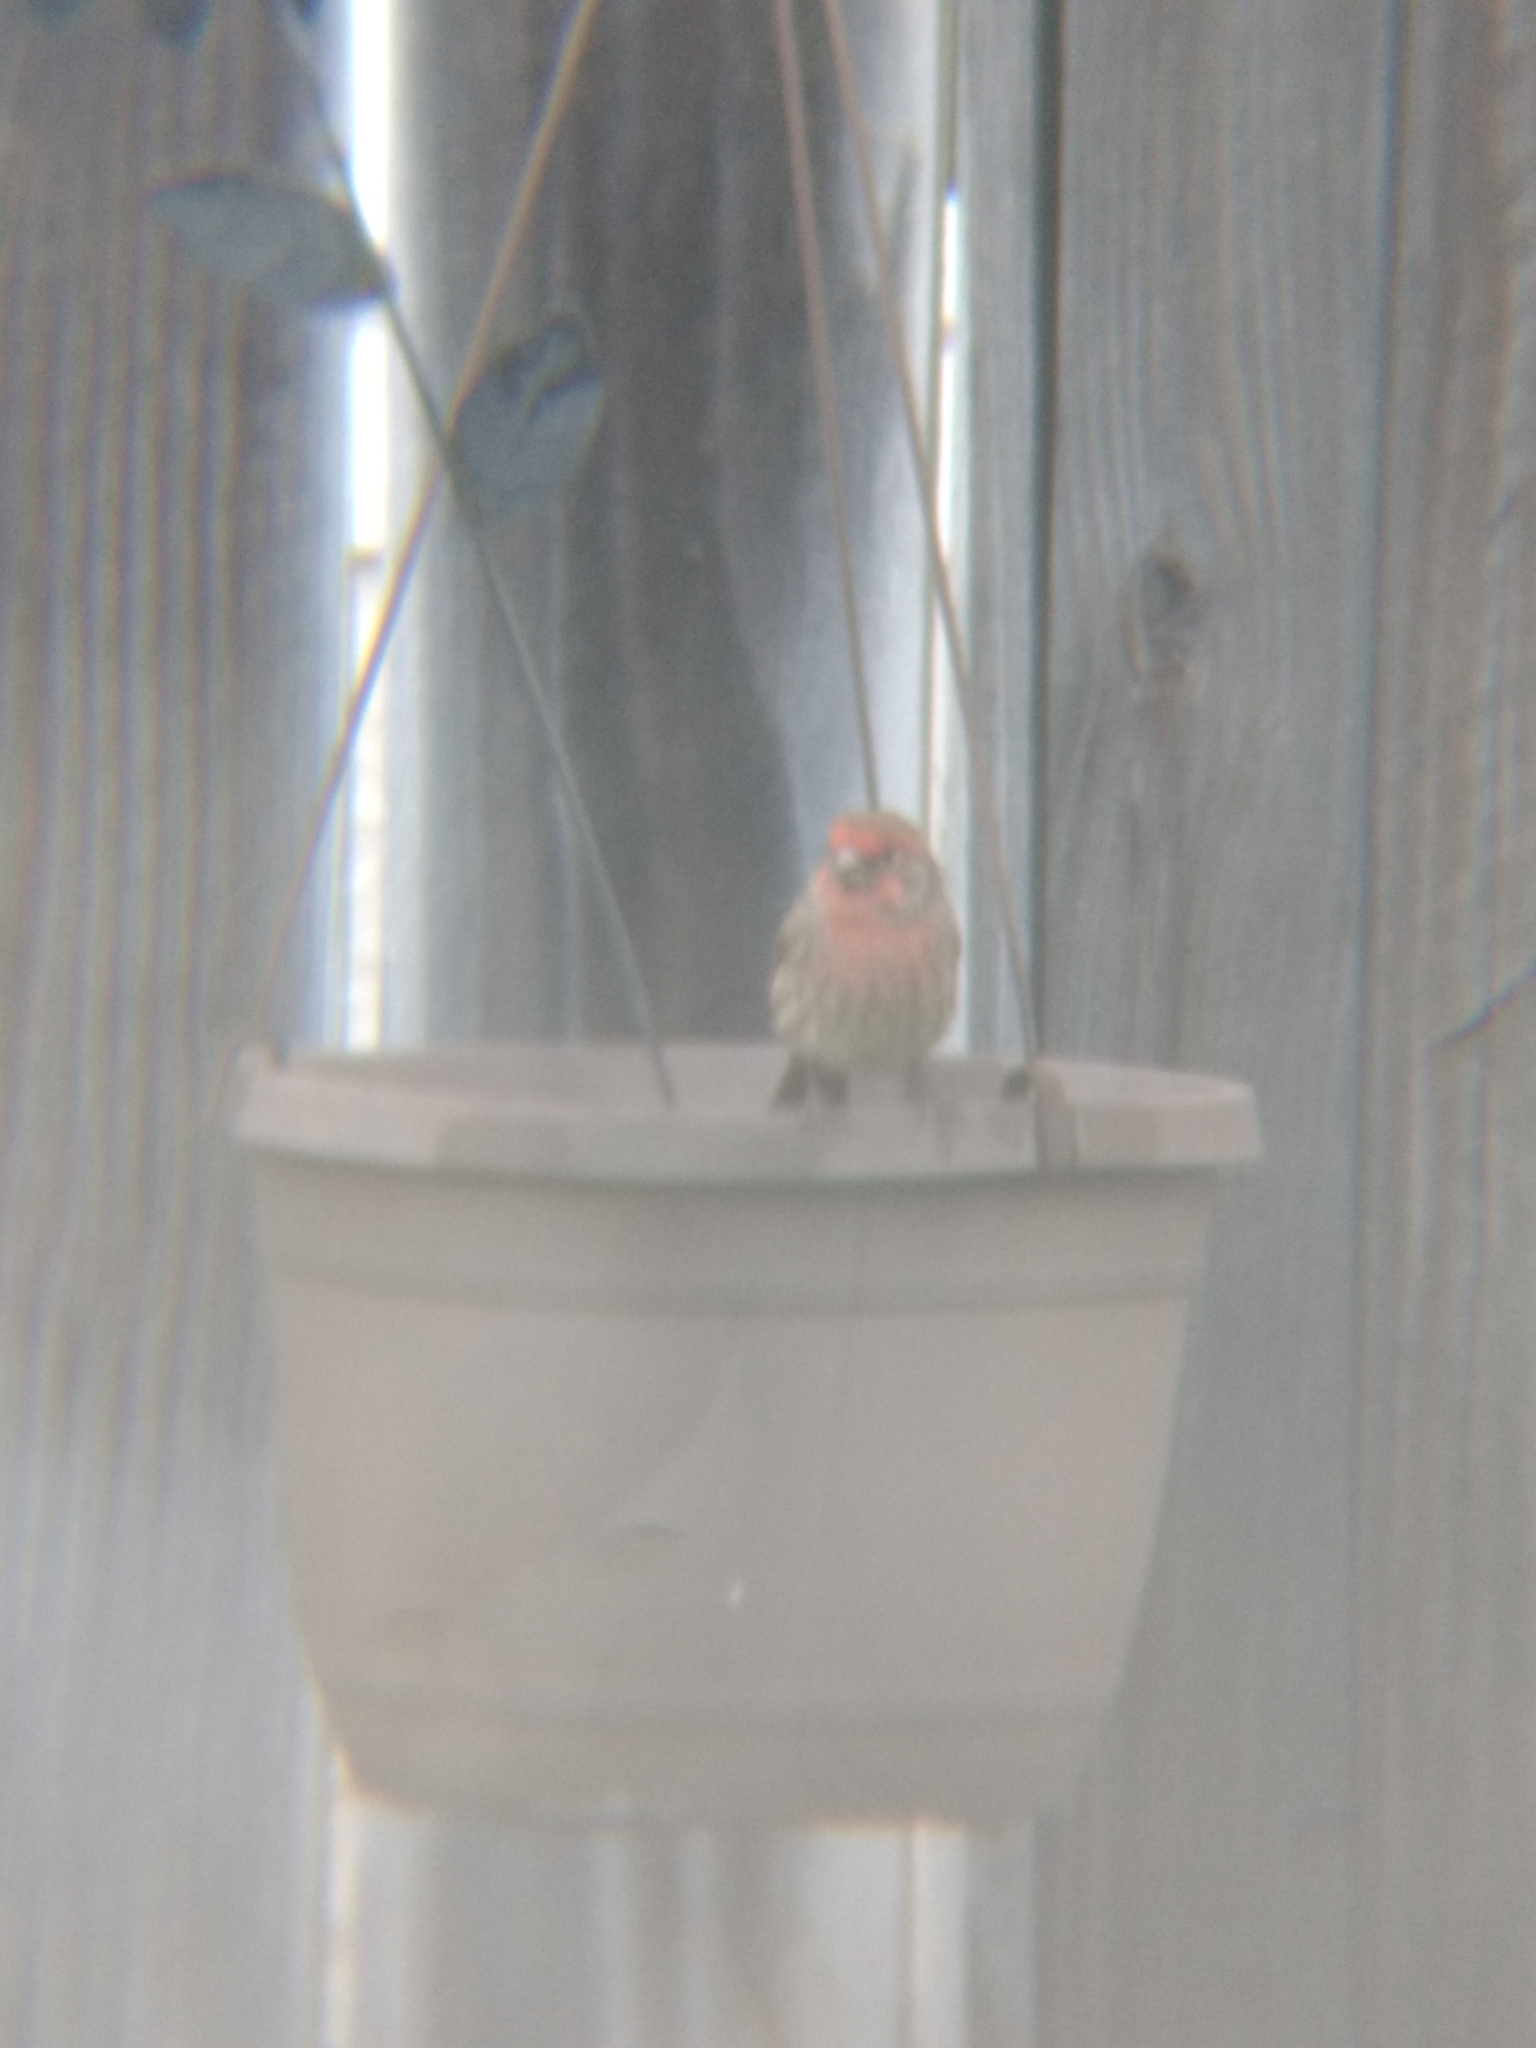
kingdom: Animalia
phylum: Chordata
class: Aves
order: Passeriformes
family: Fringillidae
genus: Haemorhous
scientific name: Haemorhous mexicanus
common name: House finch
